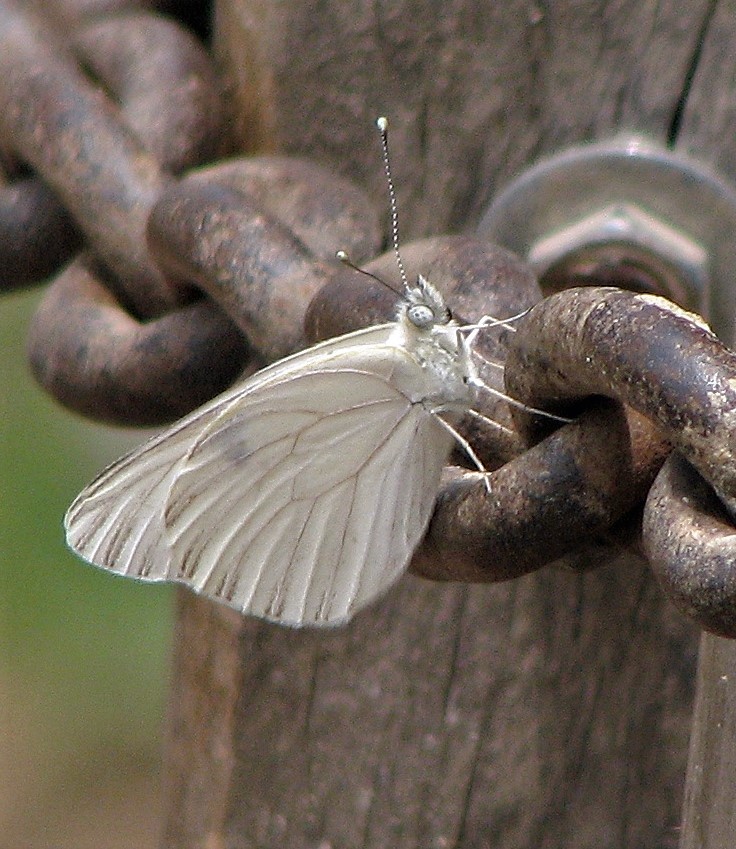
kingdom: Animalia
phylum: Arthropoda
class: Insecta
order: Lepidoptera
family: Pieridae
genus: Tatochila
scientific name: Tatochila mercedis
